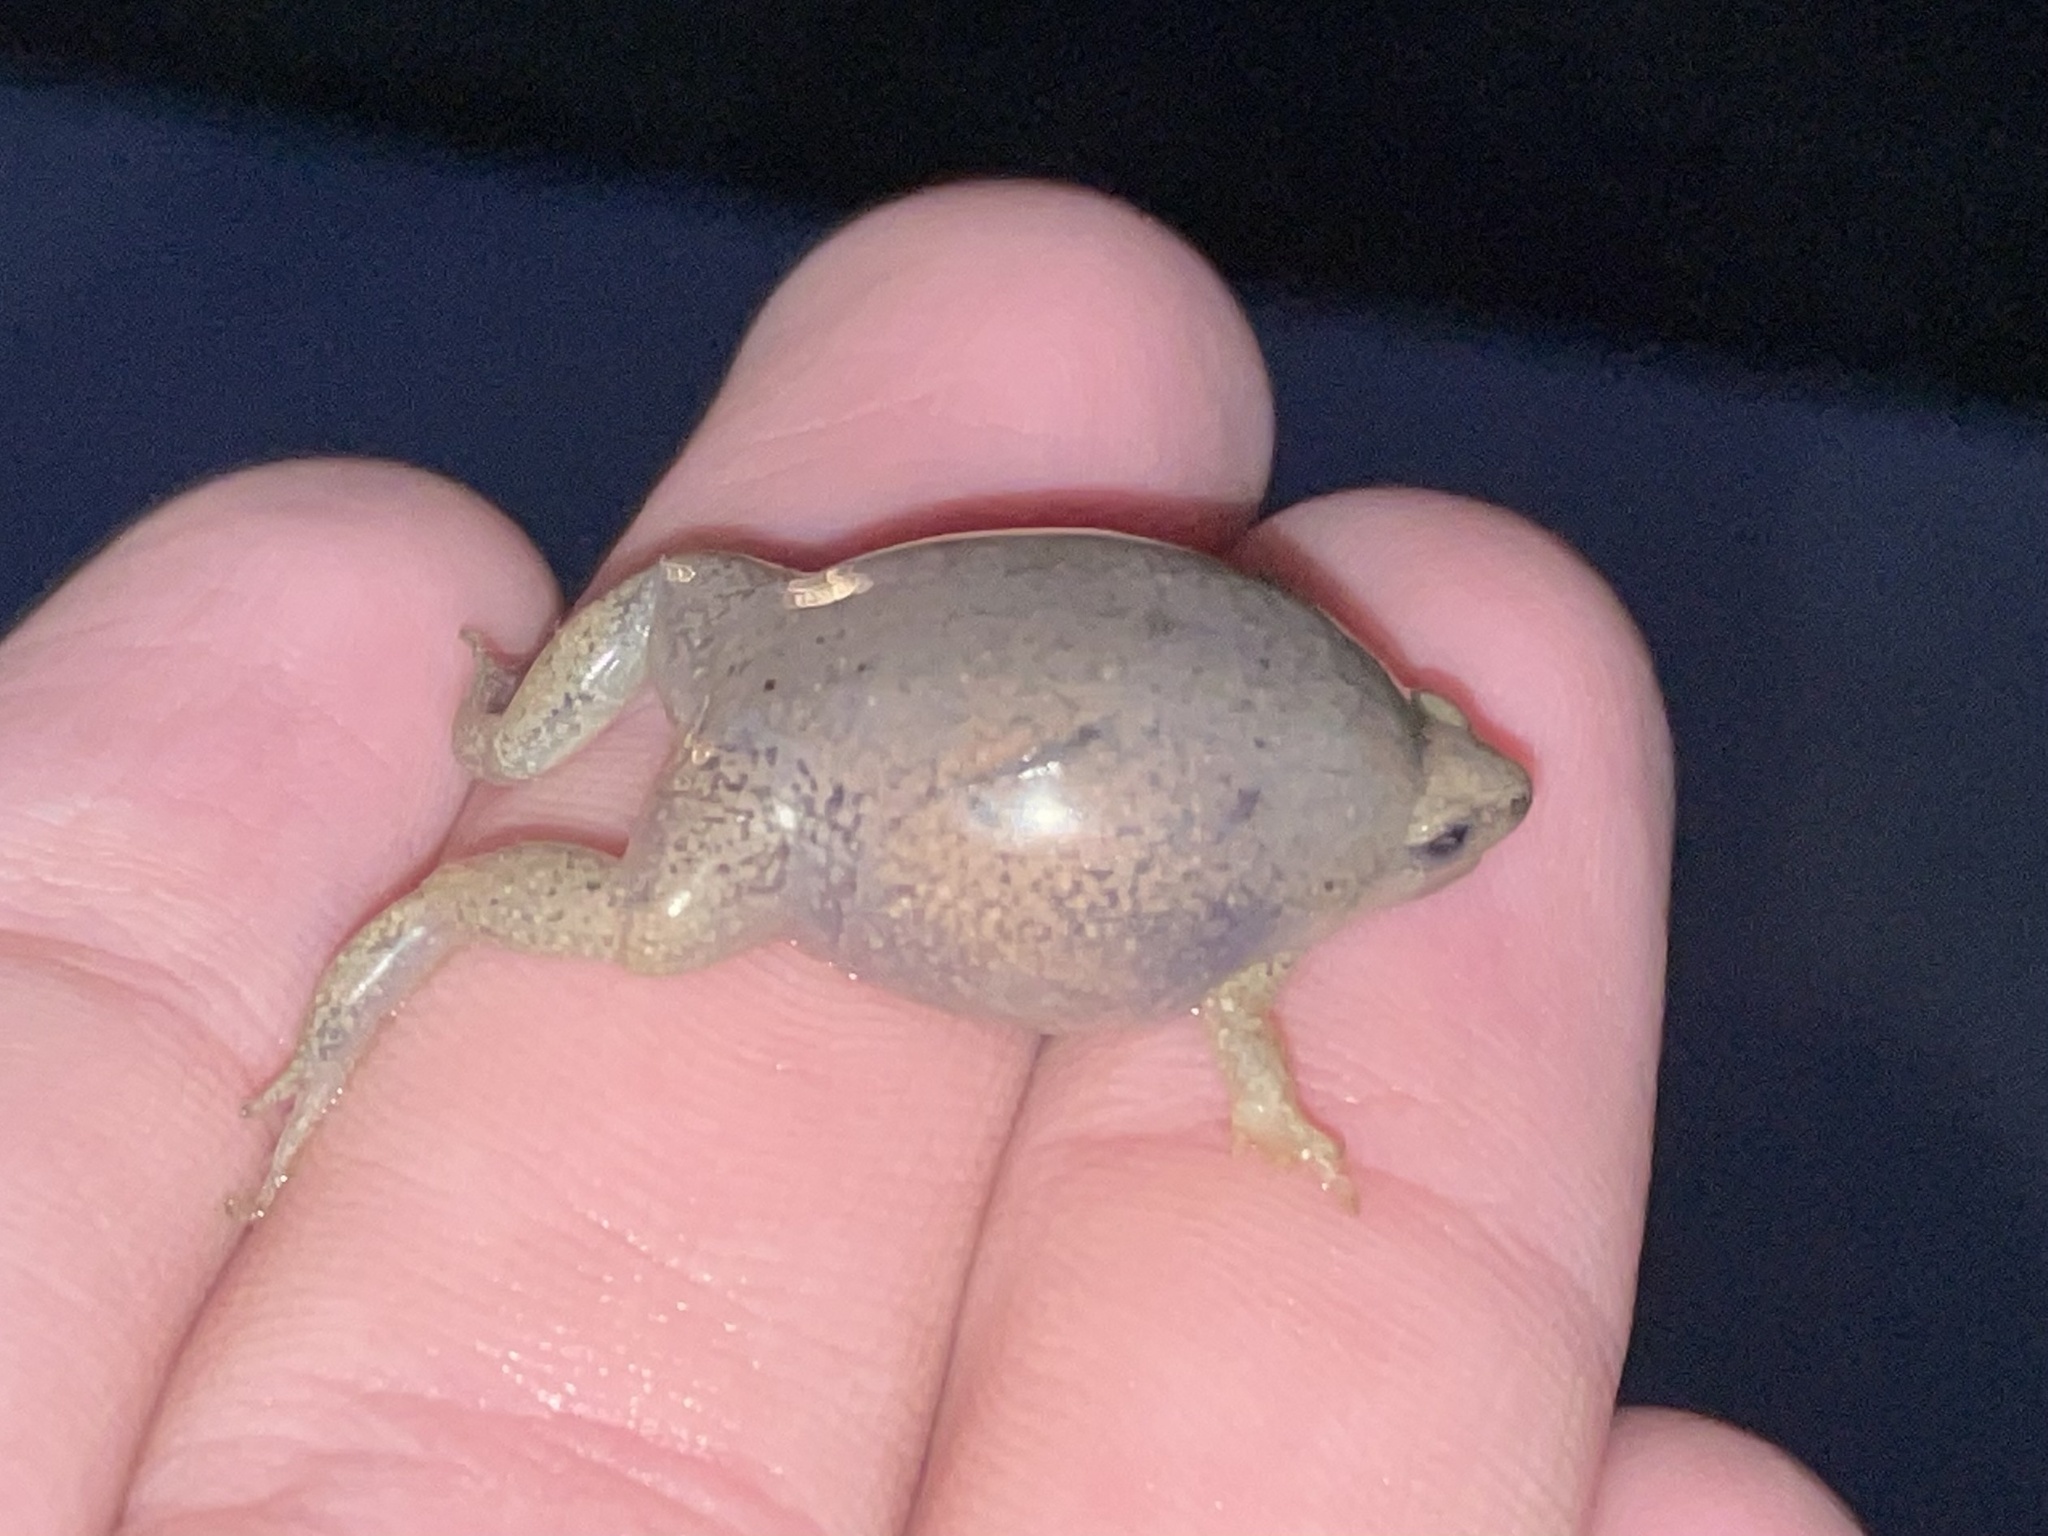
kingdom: Animalia
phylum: Chordata
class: Amphibia
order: Anura
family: Microhylidae
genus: Gastrophryne
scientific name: Gastrophryne olivacea
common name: Great plains narrow-mouthed toad
